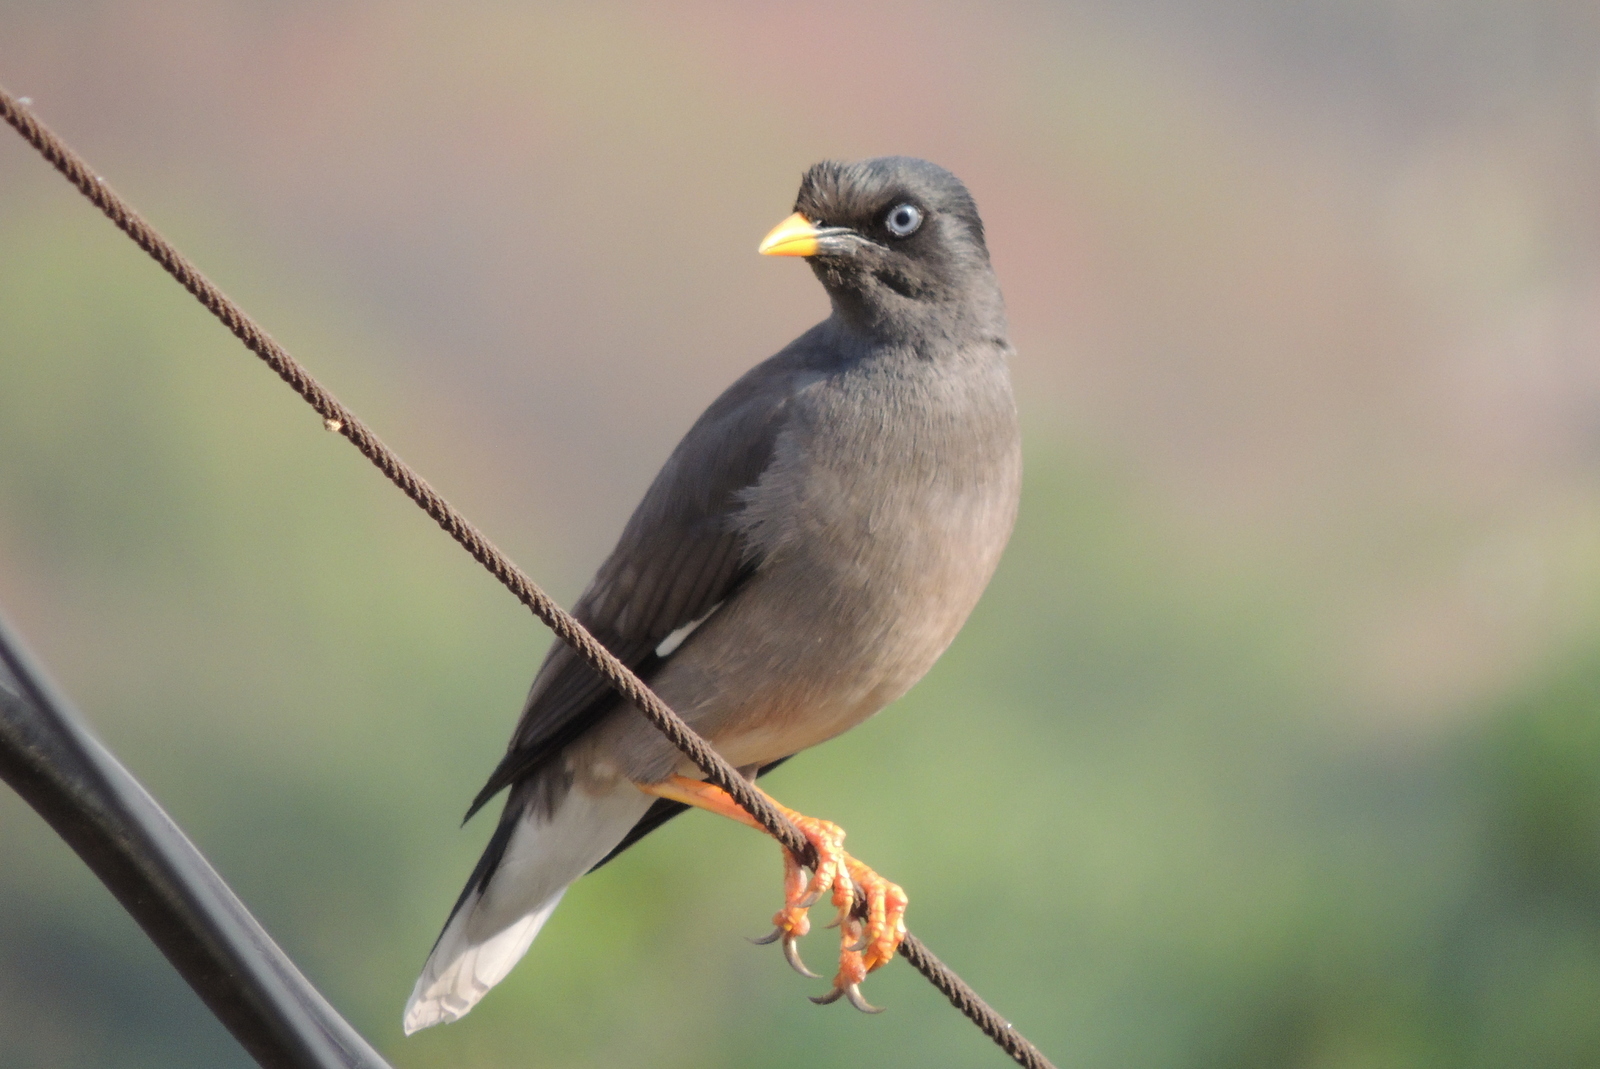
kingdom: Animalia
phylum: Chordata
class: Aves
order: Passeriformes
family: Sturnidae
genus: Acridotheres
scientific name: Acridotheres fuscus
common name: Jungle myna
